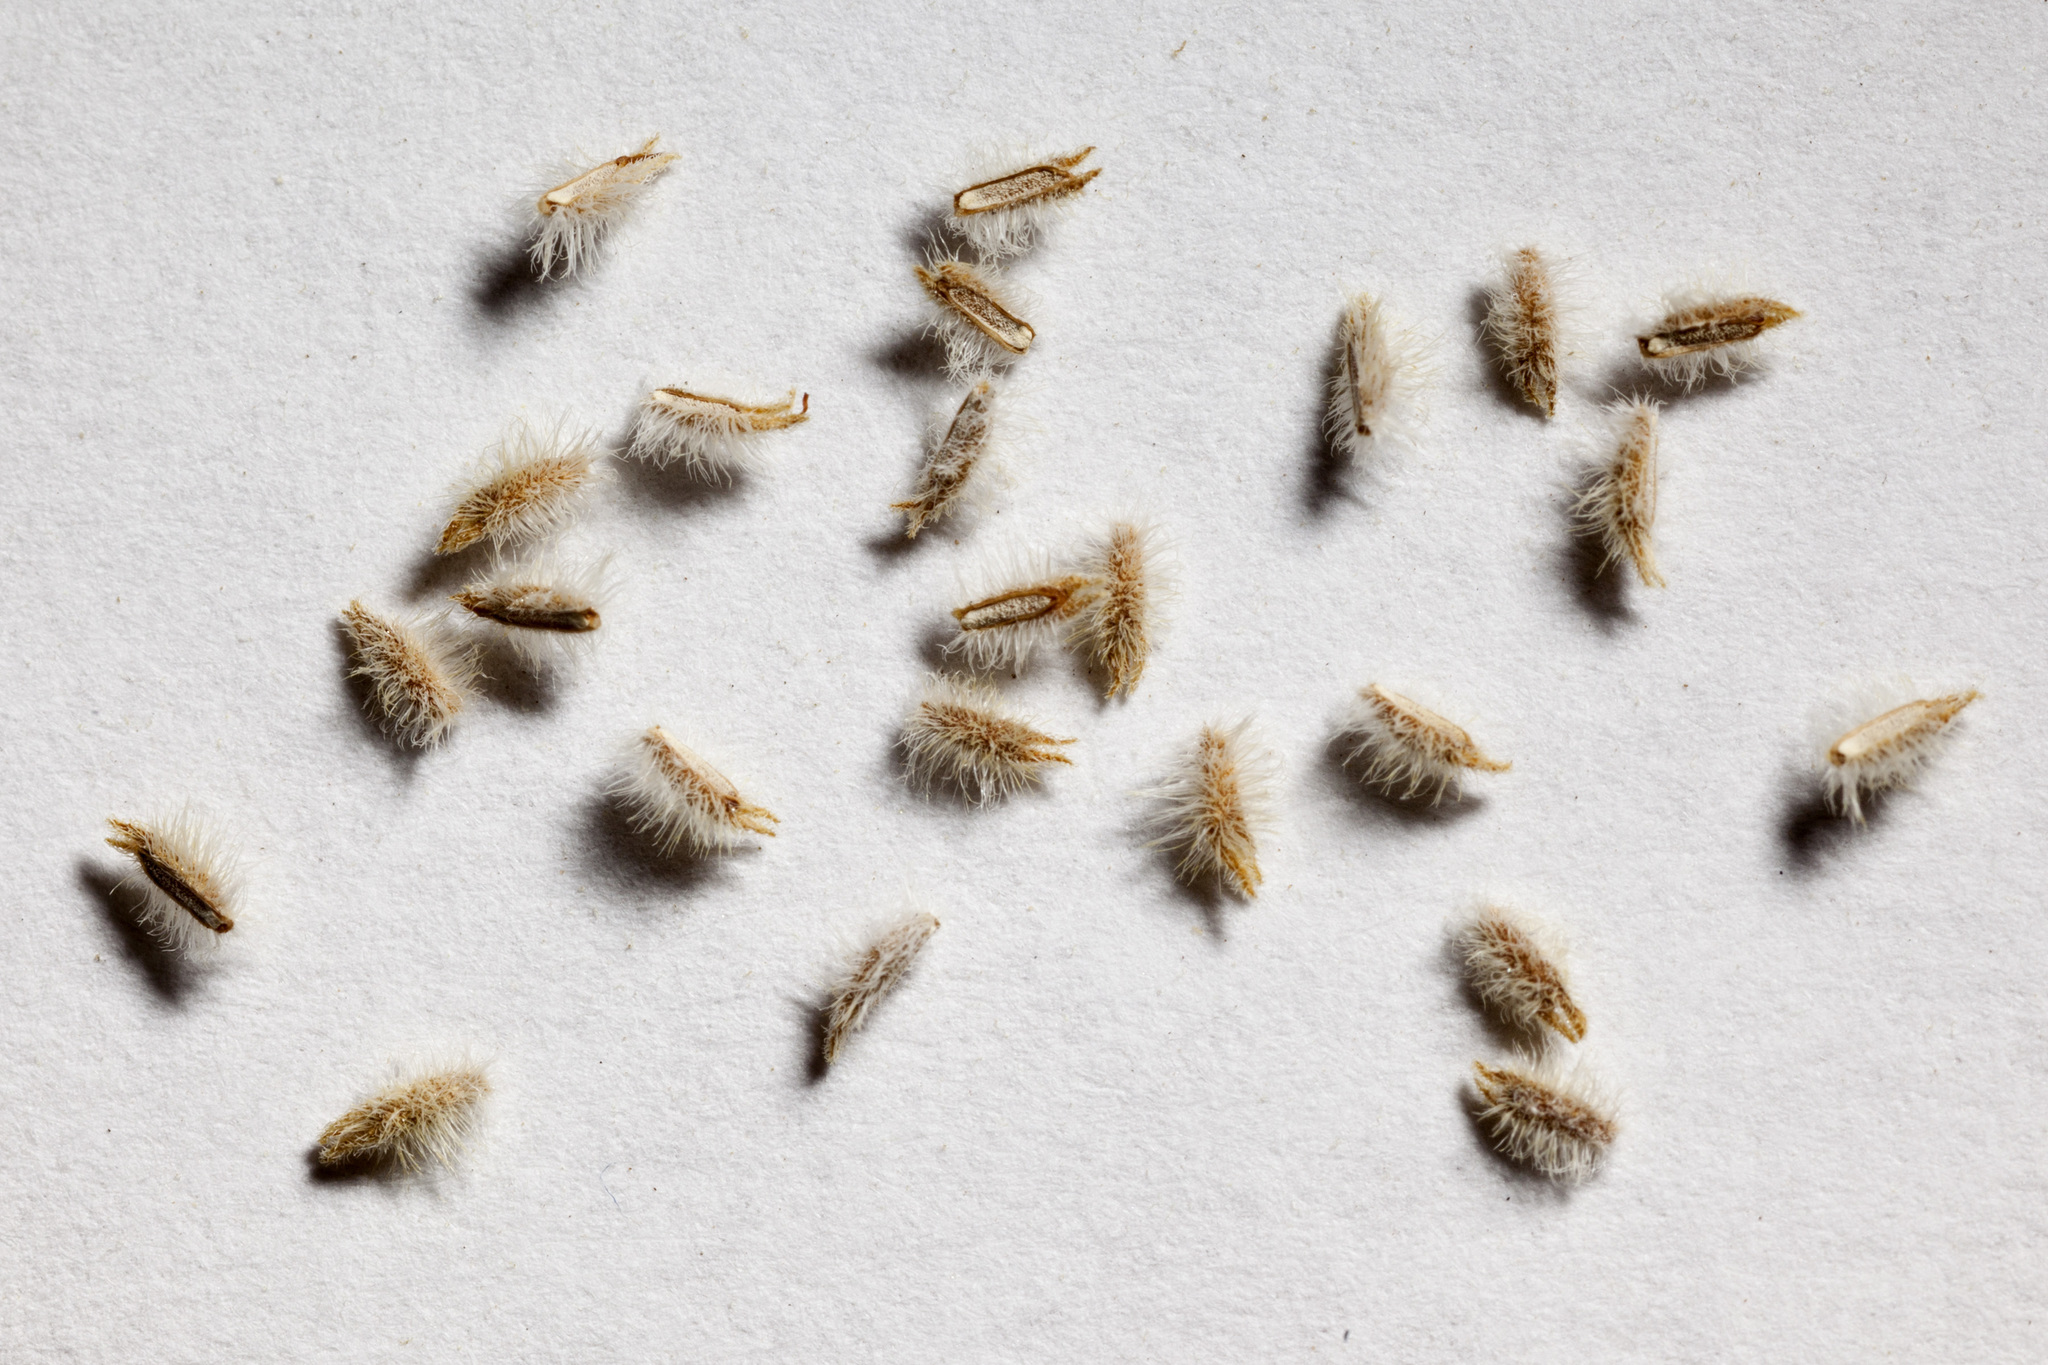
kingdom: Plantae
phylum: Tracheophyta
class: Magnoliopsida
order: Lamiales
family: Verbenaceae
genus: Aloysia
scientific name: Aloysia wrightii
